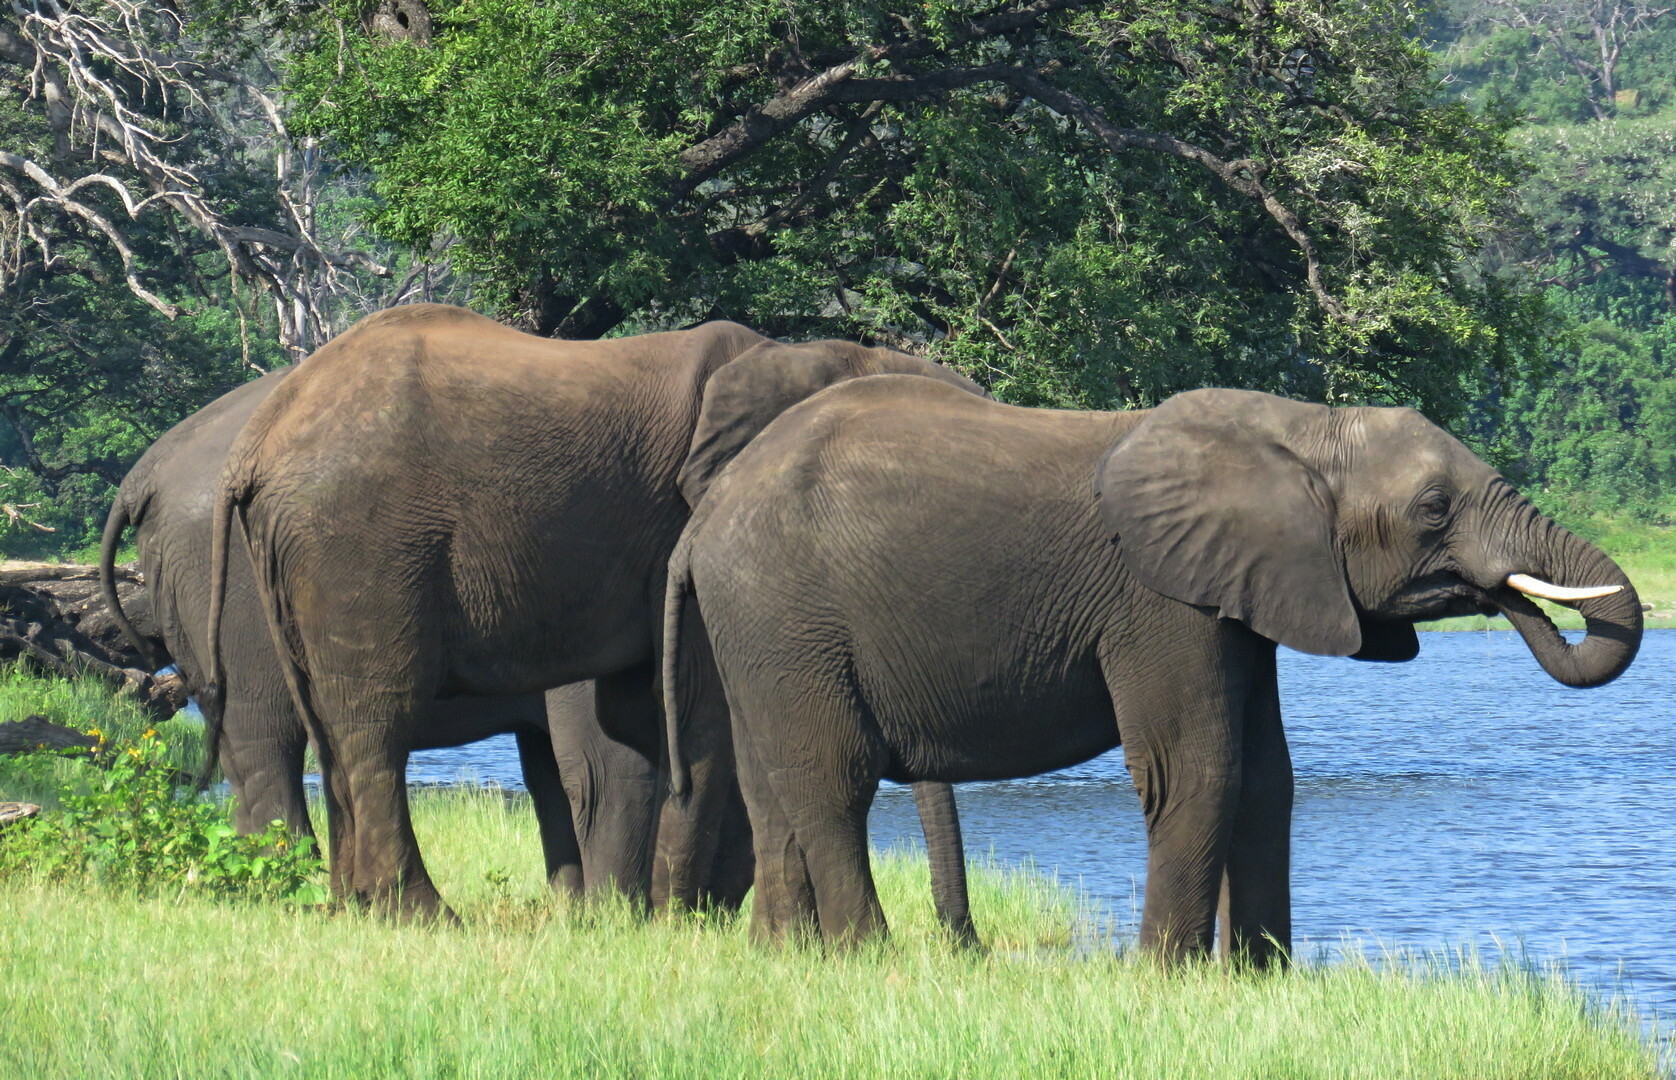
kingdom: Animalia
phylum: Chordata
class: Mammalia
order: Proboscidea
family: Elephantidae
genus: Loxodonta
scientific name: Loxodonta africana
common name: African elephant
